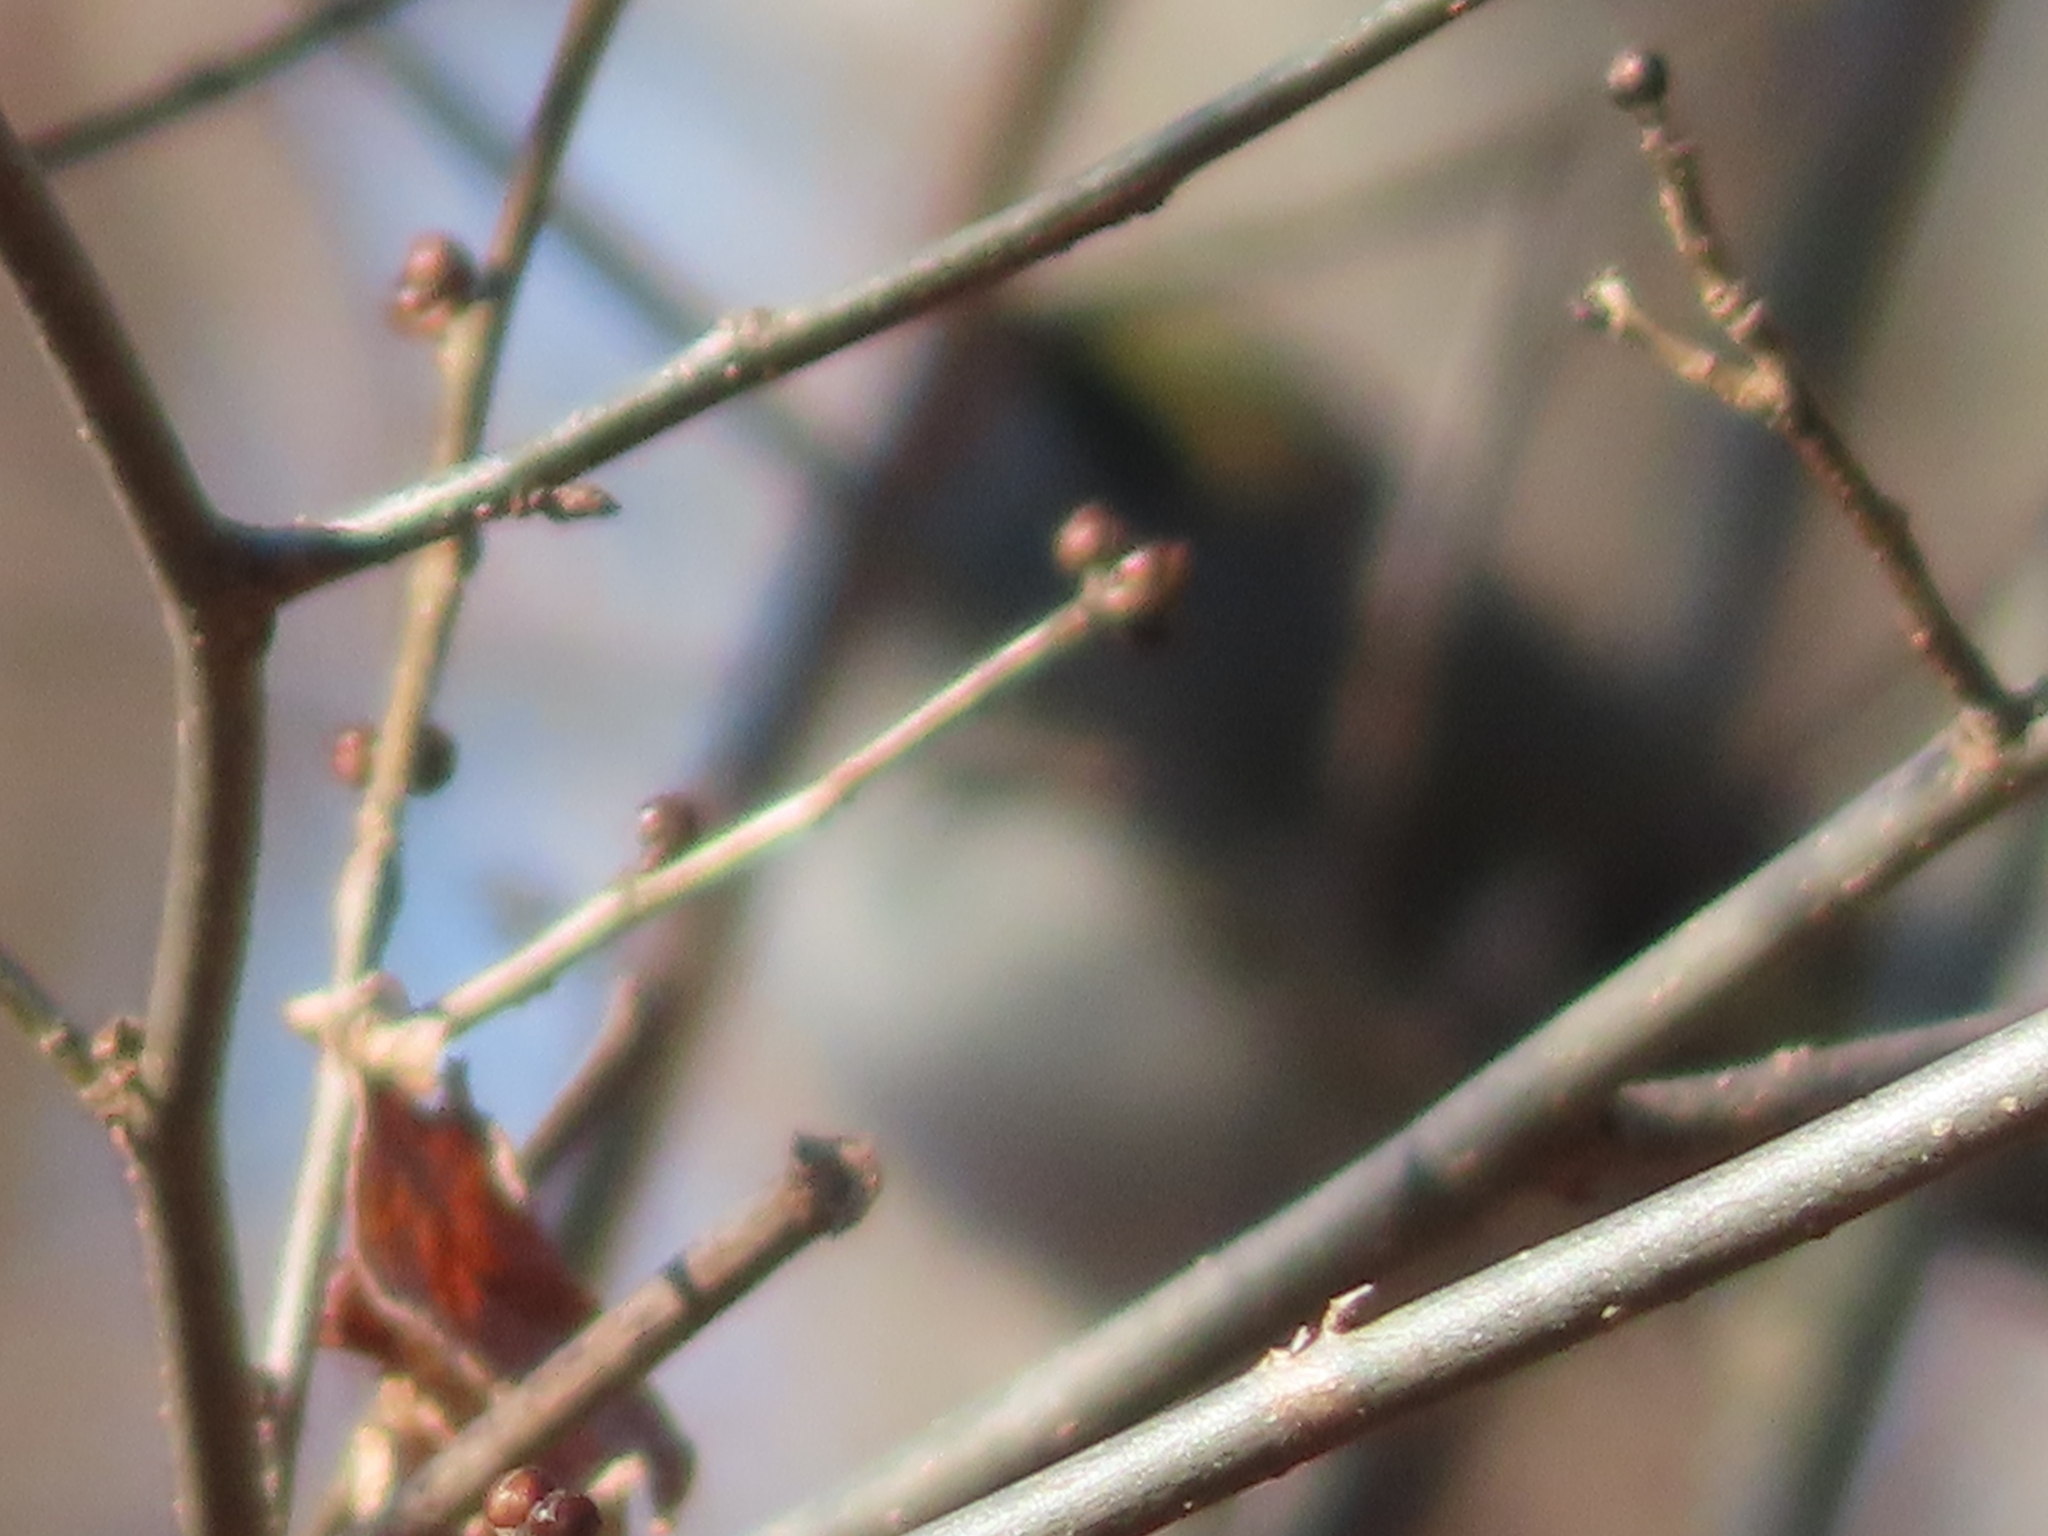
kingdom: Animalia
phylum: Chordata
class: Aves
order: Passeriformes
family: Regulidae
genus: Regulus
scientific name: Regulus satrapa
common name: Golden-crowned kinglet
